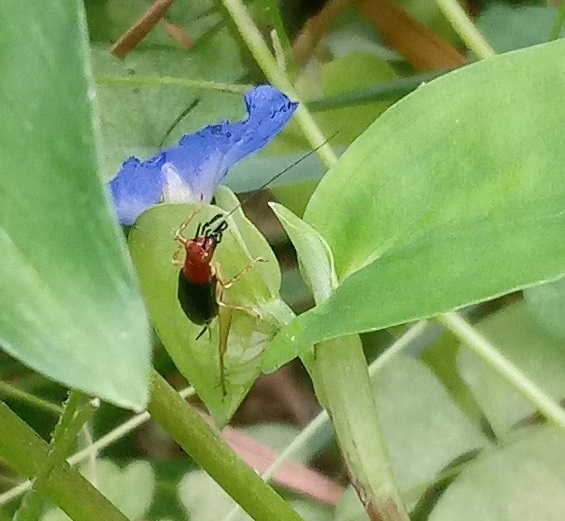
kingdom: Animalia
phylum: Arthropoda
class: Insecta
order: Orthoptera
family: Trigonidiidae
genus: Phyllopalpus
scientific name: Phyllopalpus pulchellus
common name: Handsome trig
